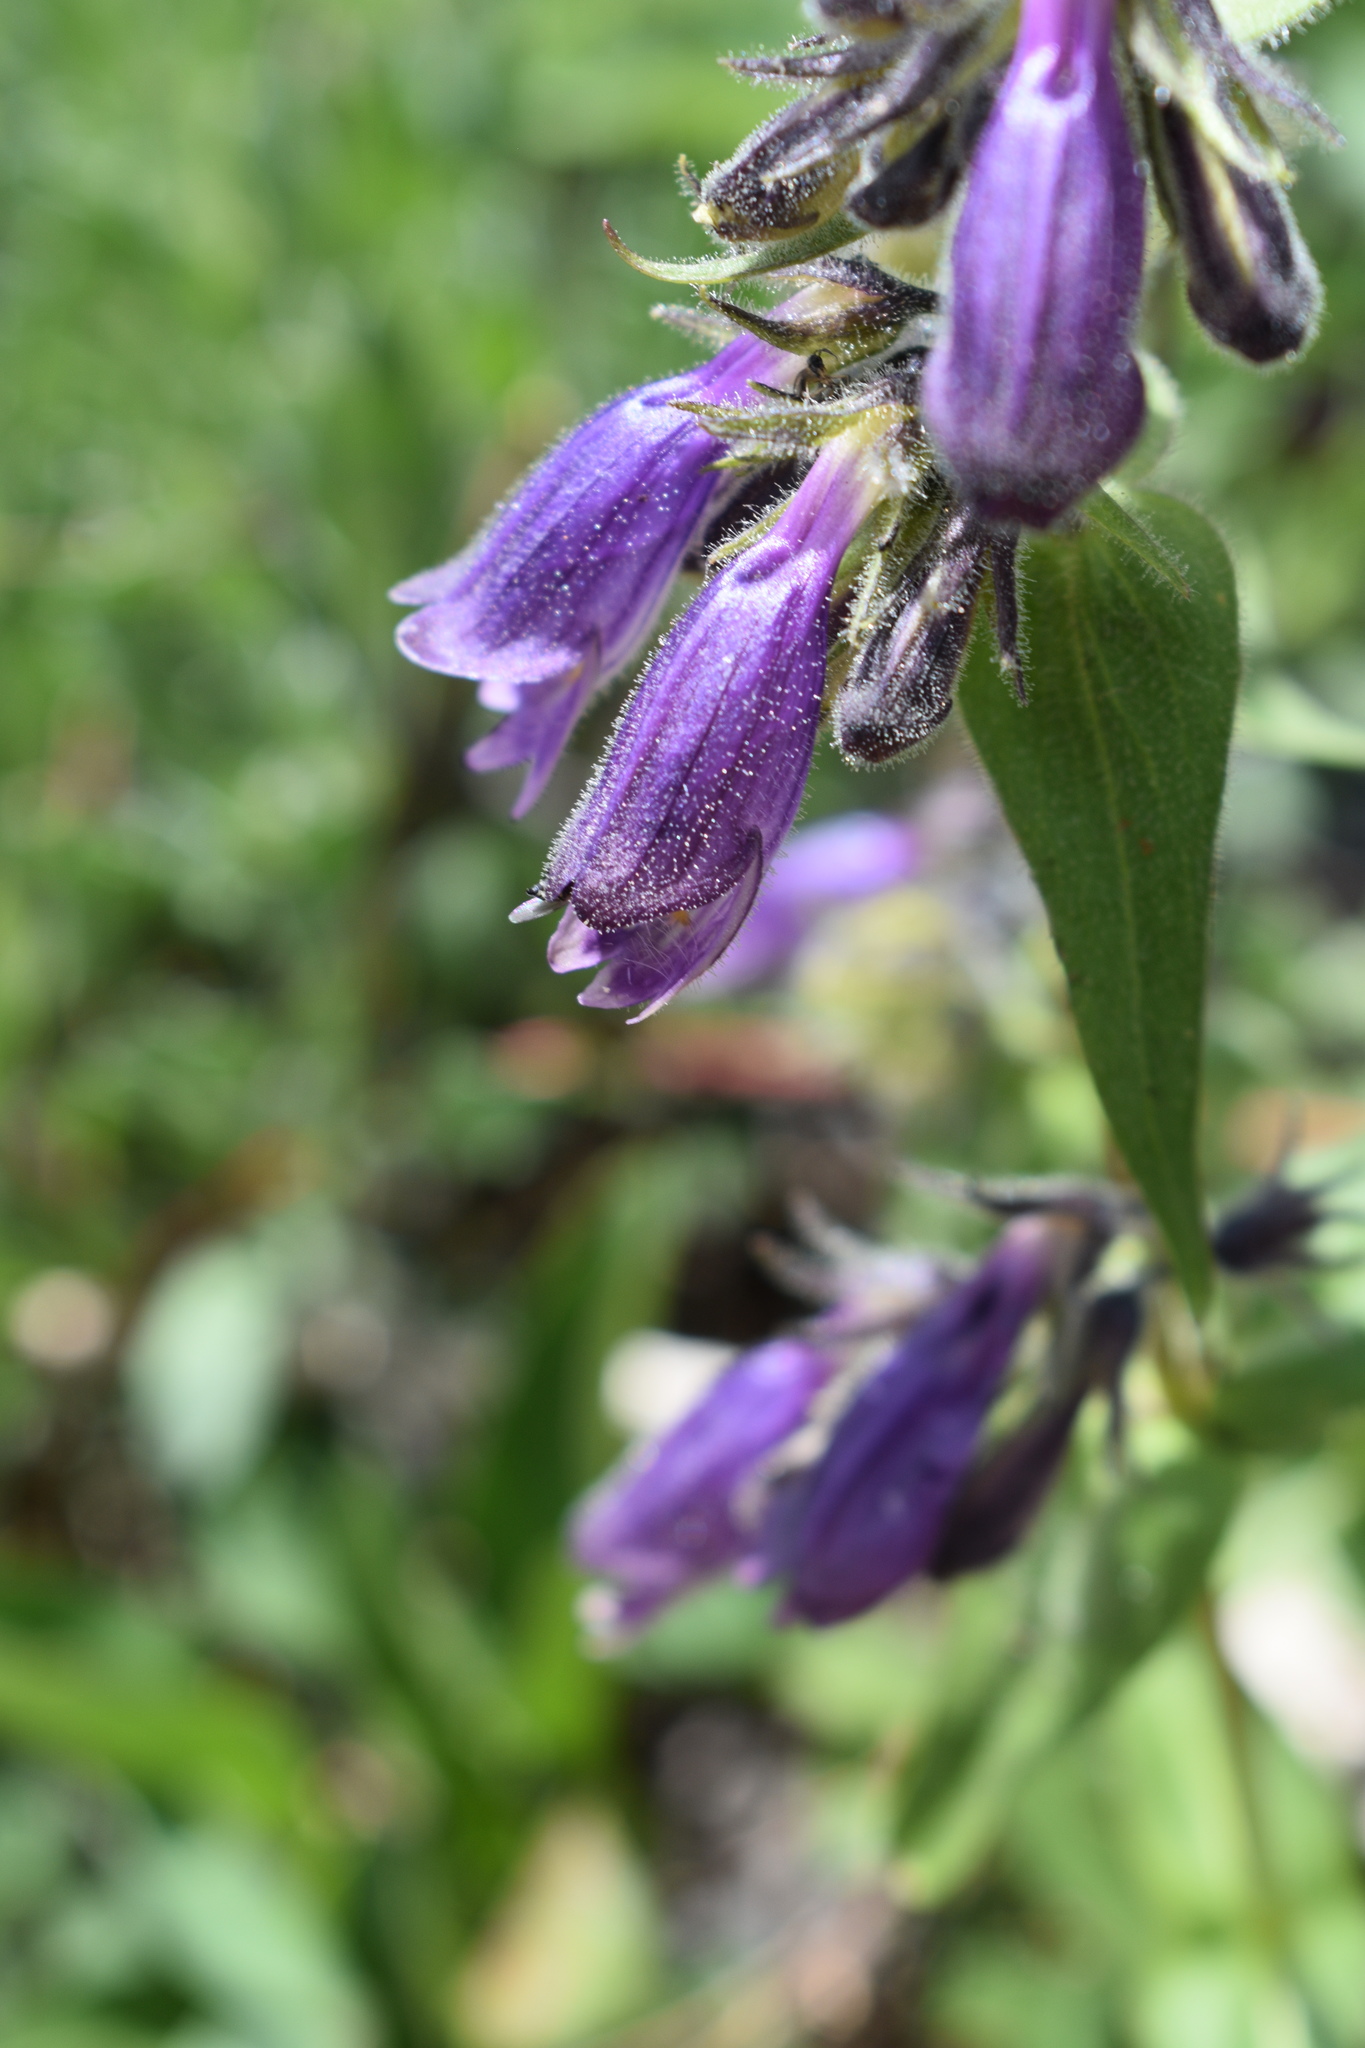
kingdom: Plantae
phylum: Tracheophyta
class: Magnoliopsida
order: Lamiales
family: Plantaginaceae
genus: Penstemon
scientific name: Penstemon whippleanus
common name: Whipple's penstemon
